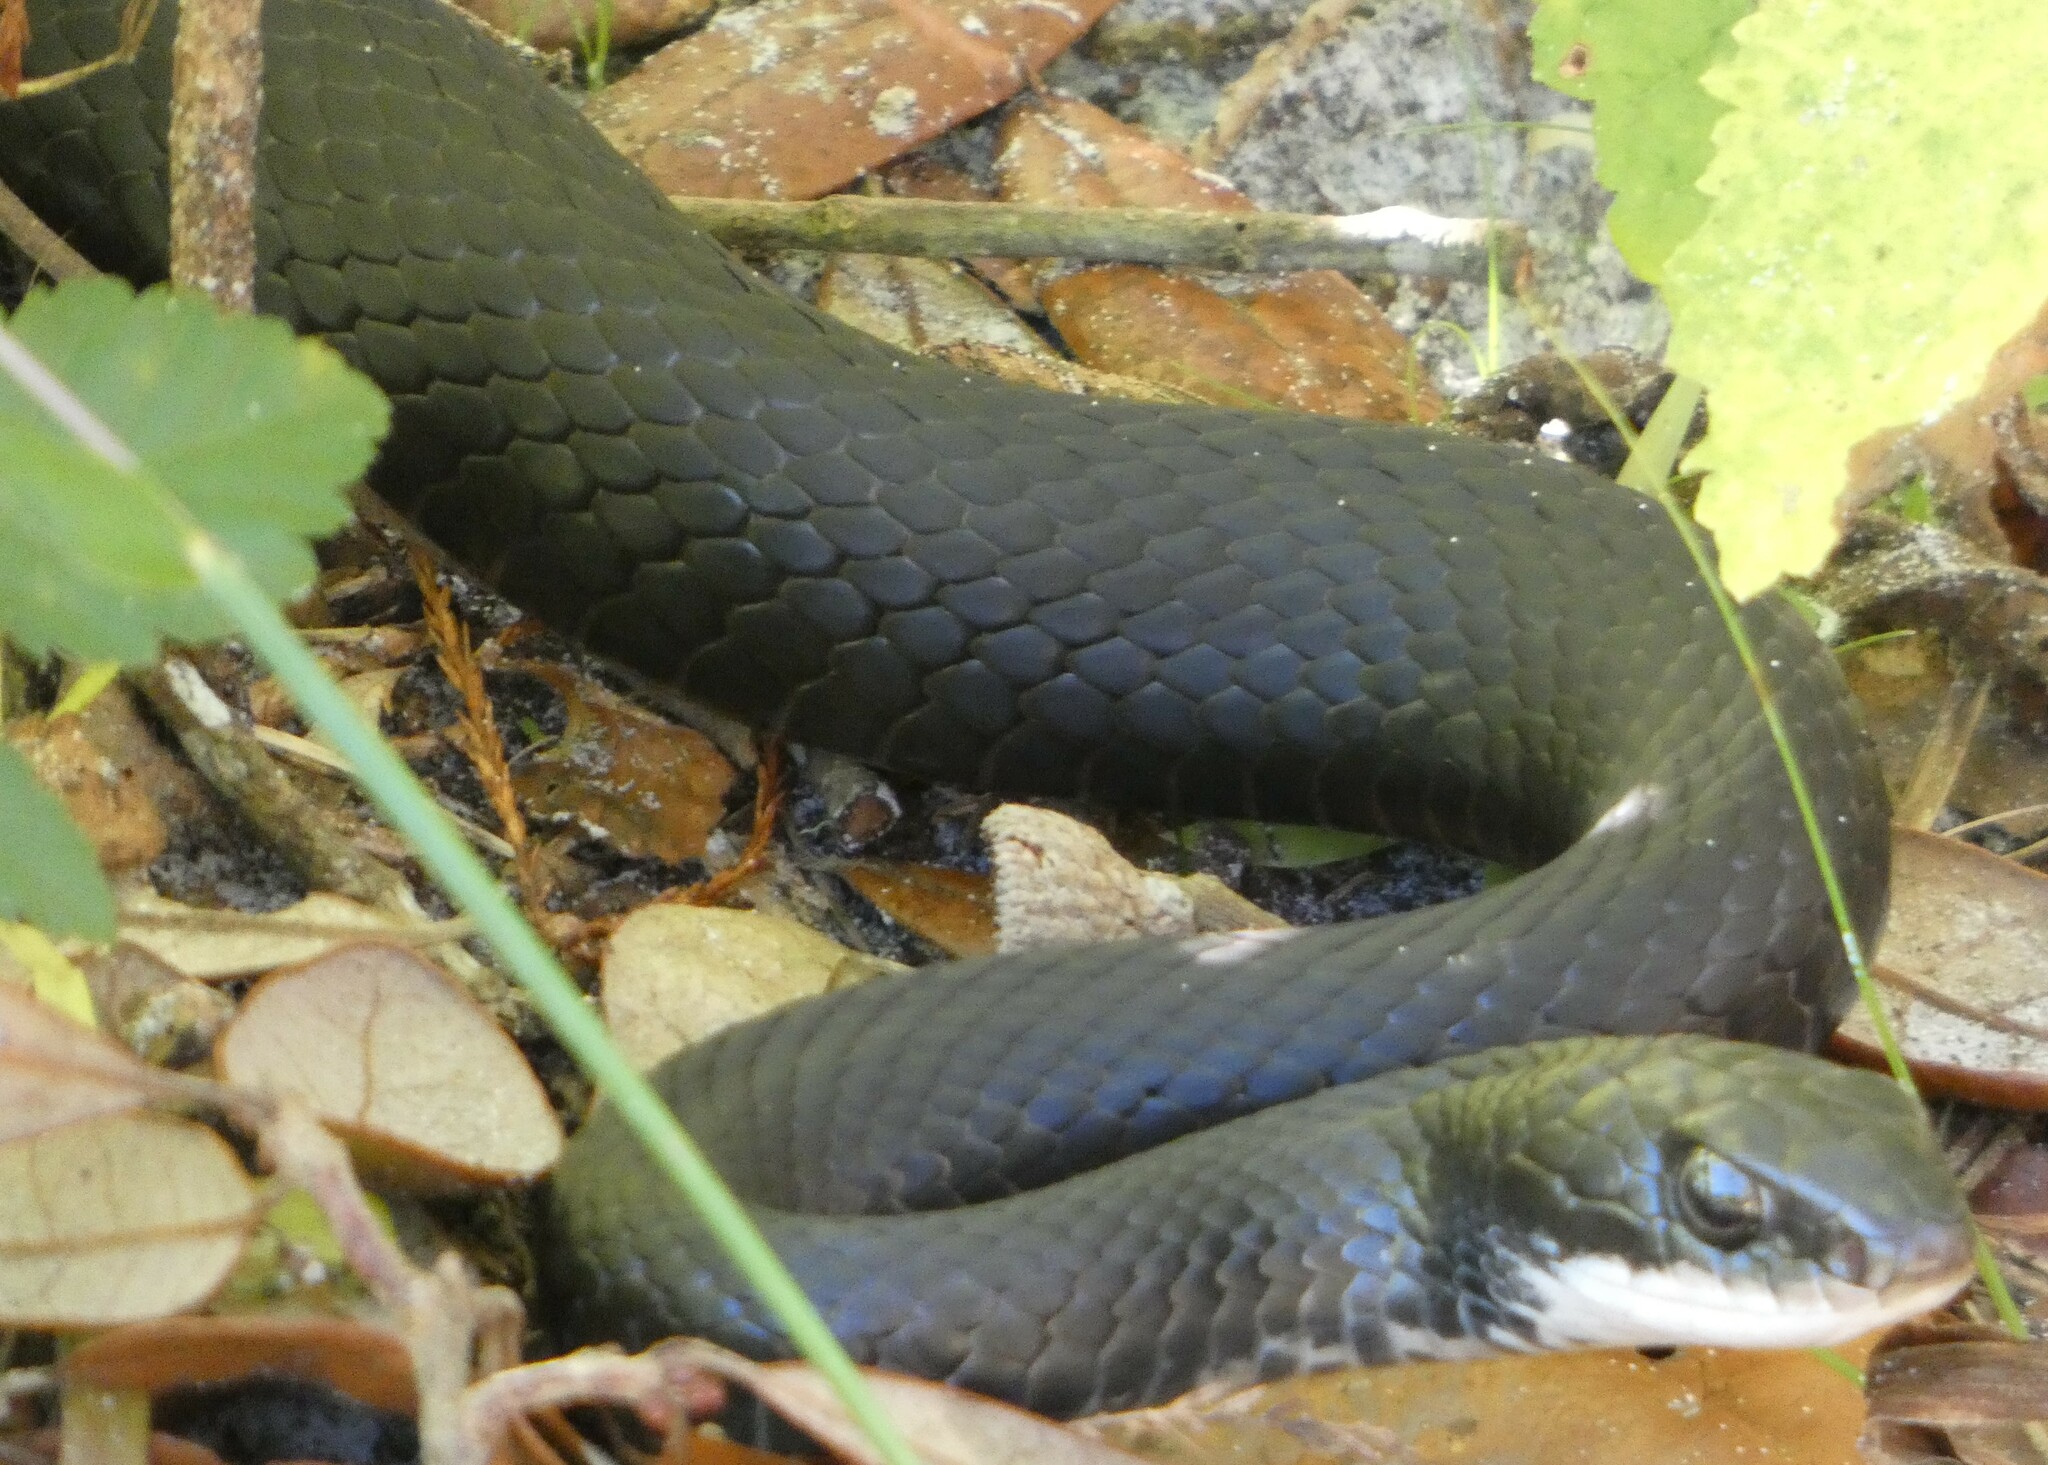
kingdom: Animalia
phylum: Chordata
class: Squamata
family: Colubridae
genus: Coluber
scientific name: Coluber constrictor
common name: Eastern racer
